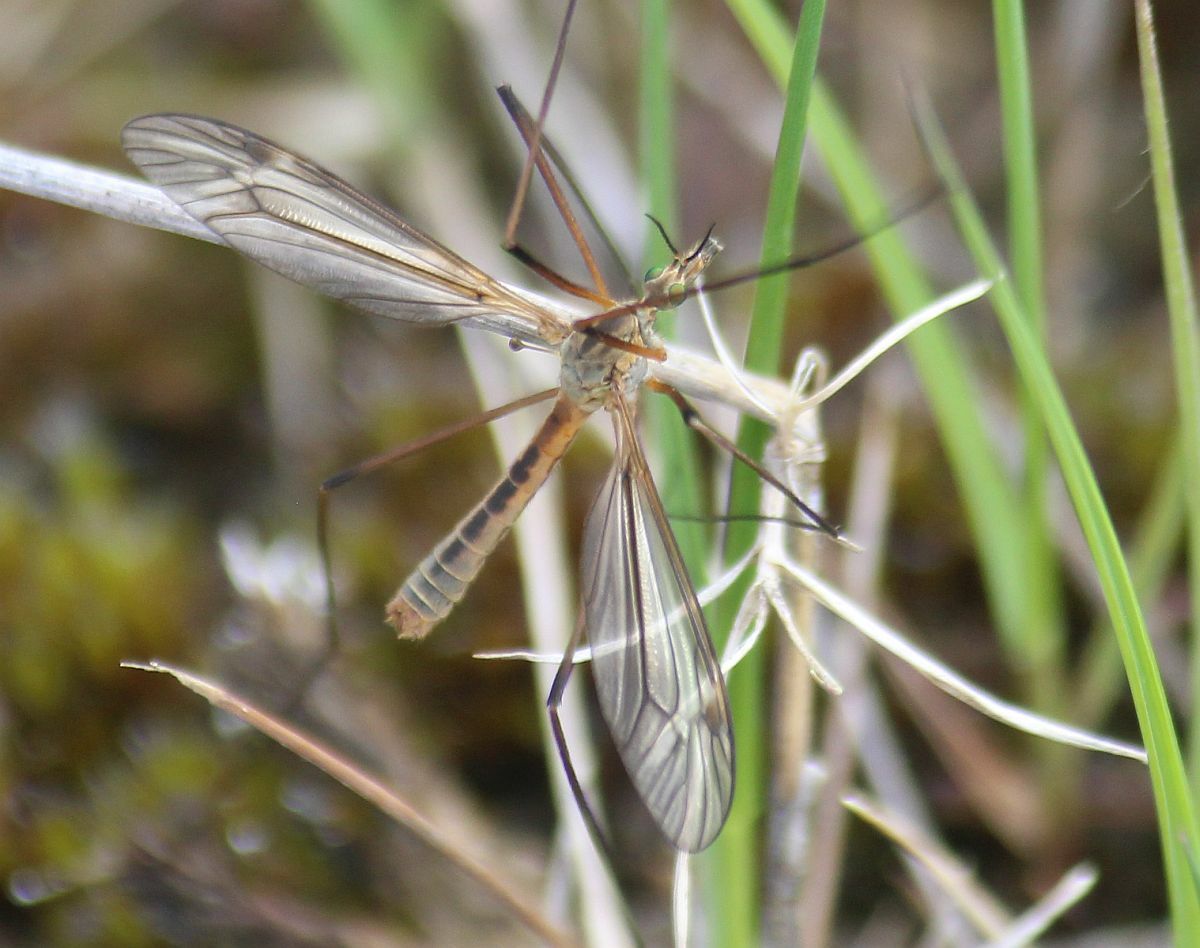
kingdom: Animalia
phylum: Arthropoda
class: Insecta
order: Diptera
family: Tipulidae
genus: Tipula
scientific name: Tipula vernalis
